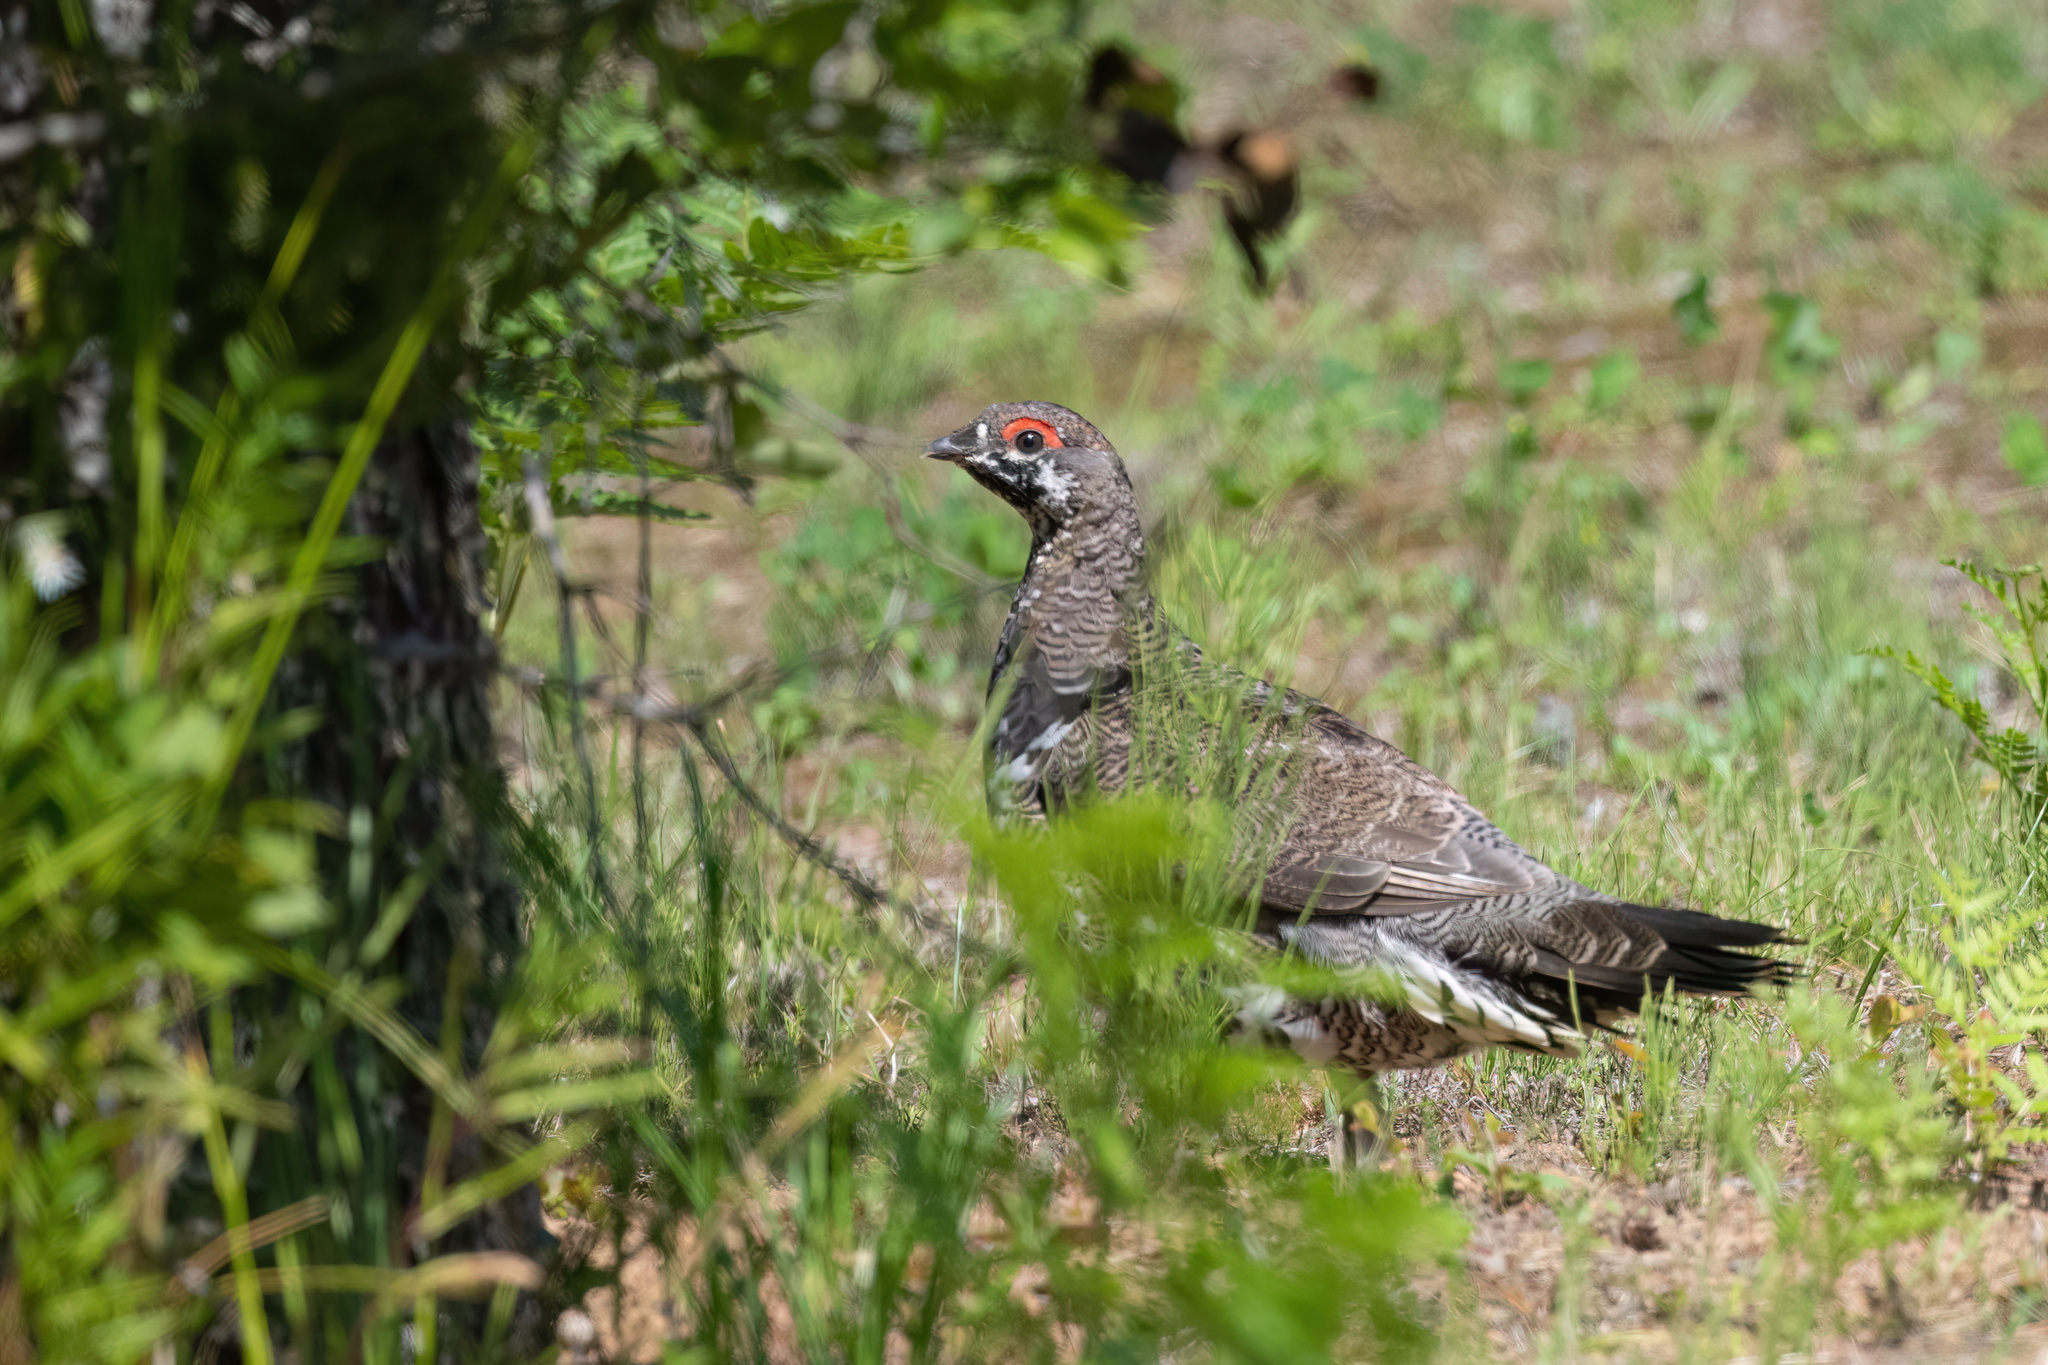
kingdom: Animalia
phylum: Chordata
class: Aves
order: Galliformes
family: Phasianidae
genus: Canachites
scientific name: Canachites canadensis
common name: Spruce grouse
